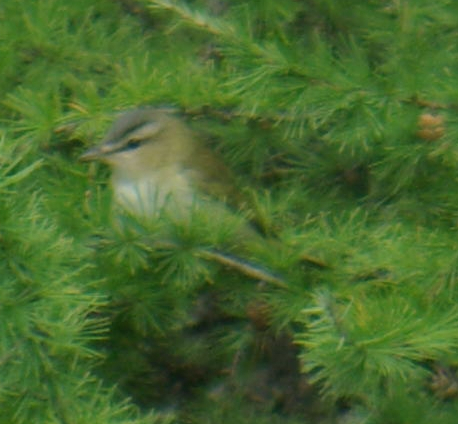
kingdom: Animalia
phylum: Chordata
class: Aves
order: Passeriformes
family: Vireonidae
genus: Vireo
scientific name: Vireo olivaceus
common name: Red-eyed vireo
